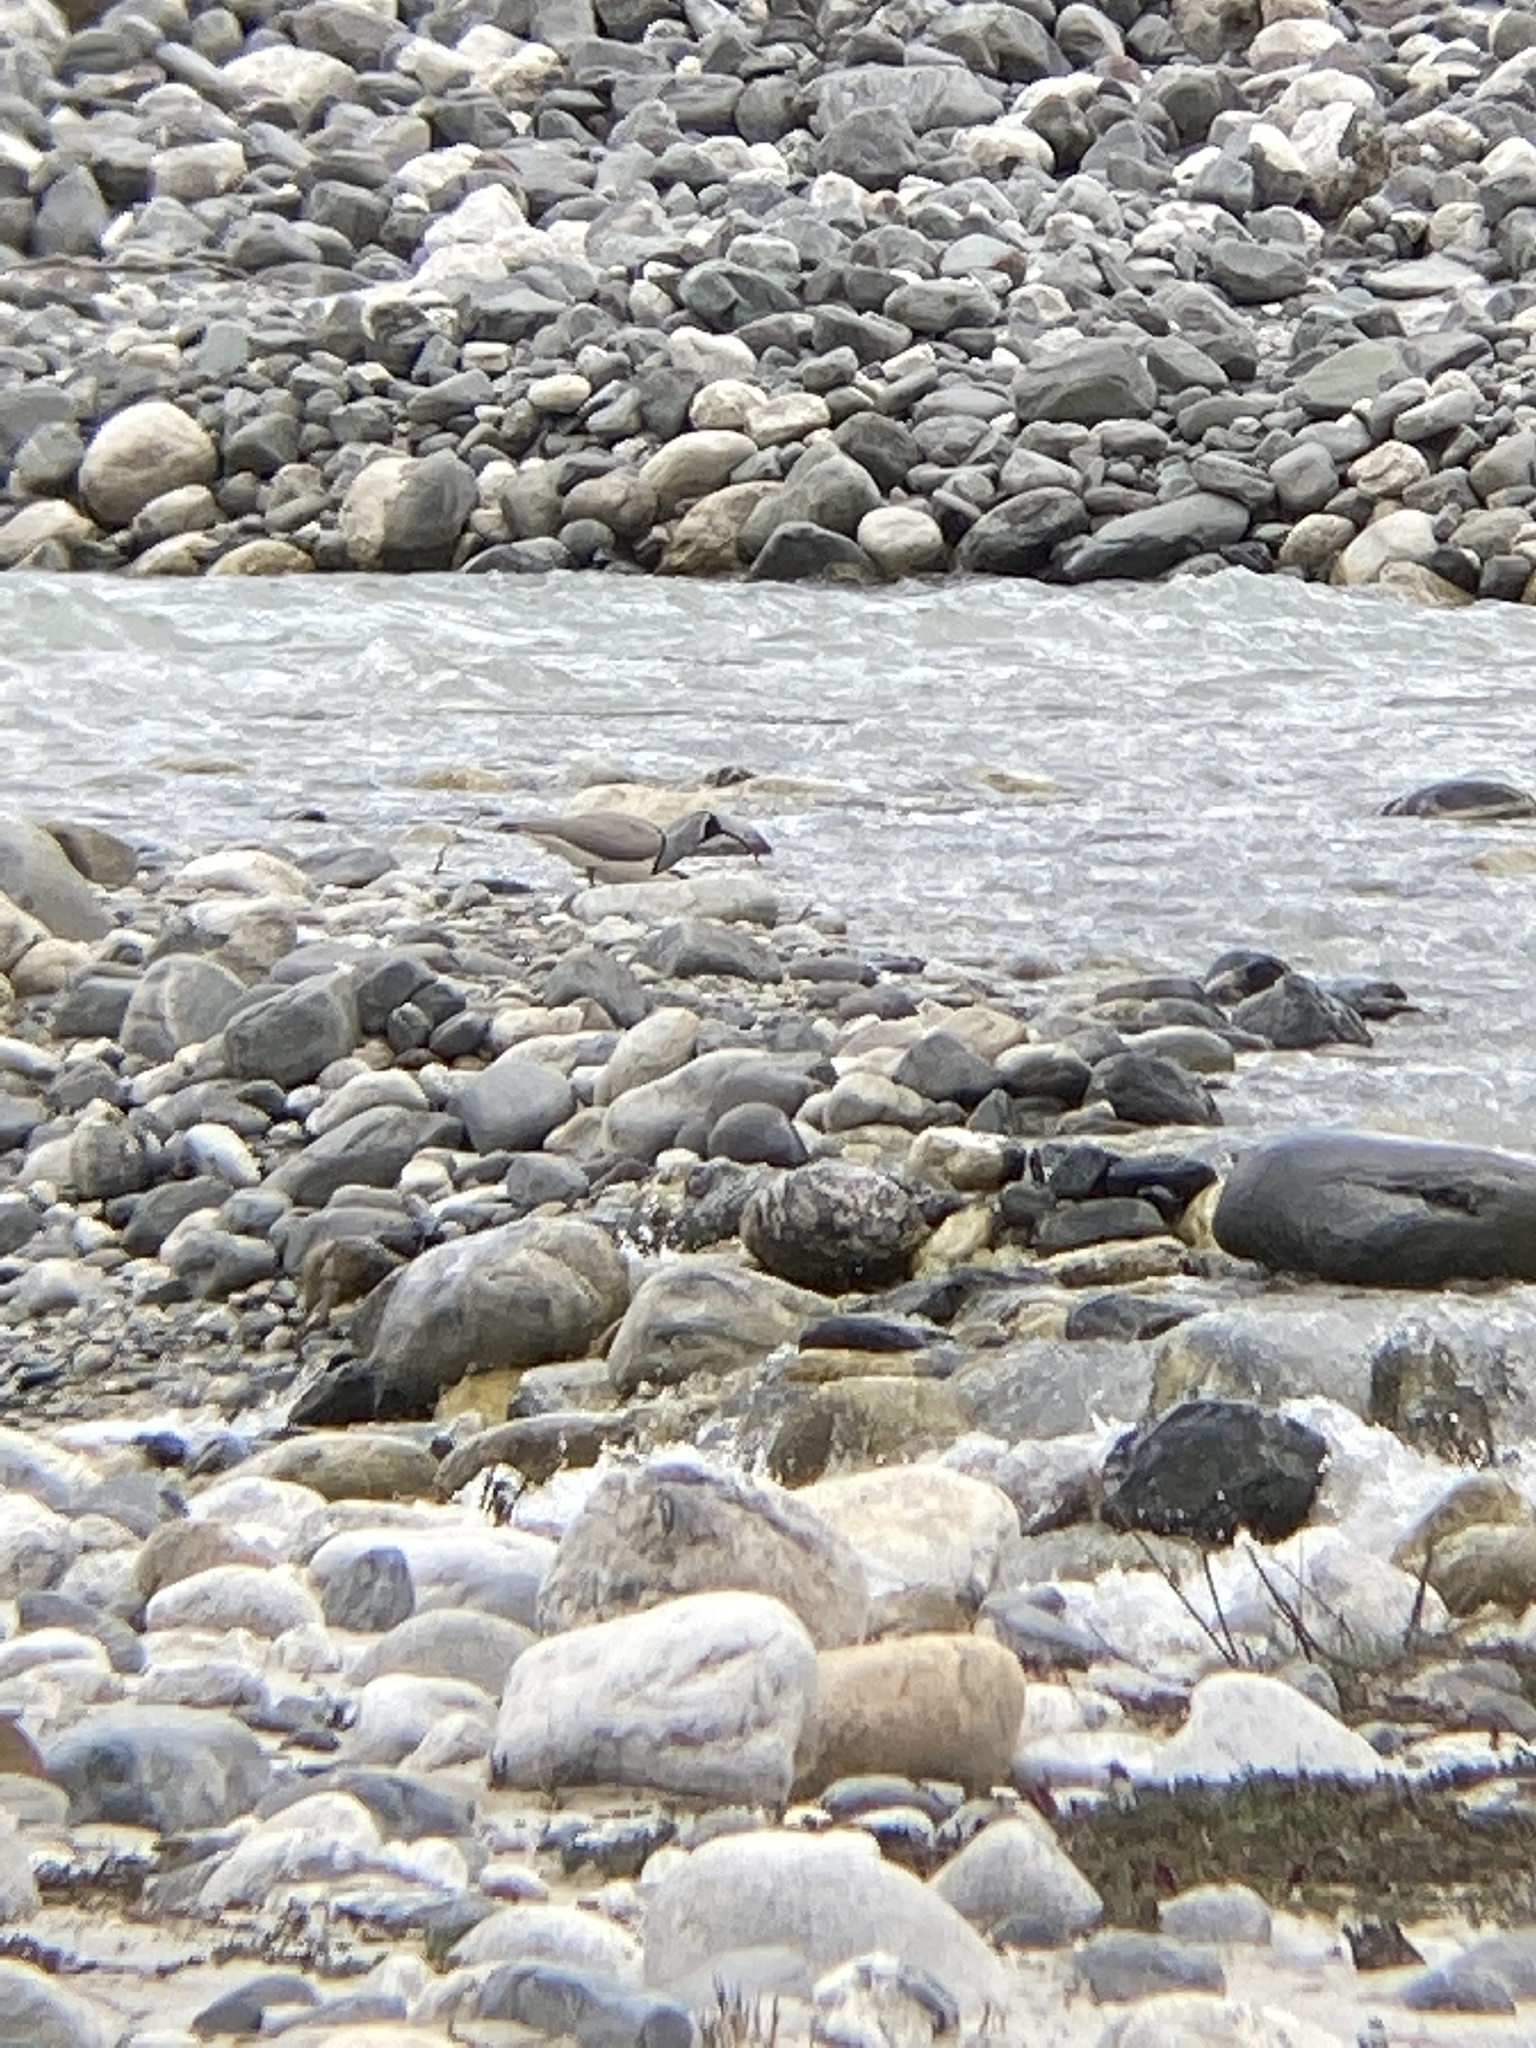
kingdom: Animalia
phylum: Chordata
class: Aves
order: Charadriiformes
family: Ibidorhynchidae
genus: Ibidorhyncha
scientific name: Ibidorhyncha struthersii
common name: Ibisbill
